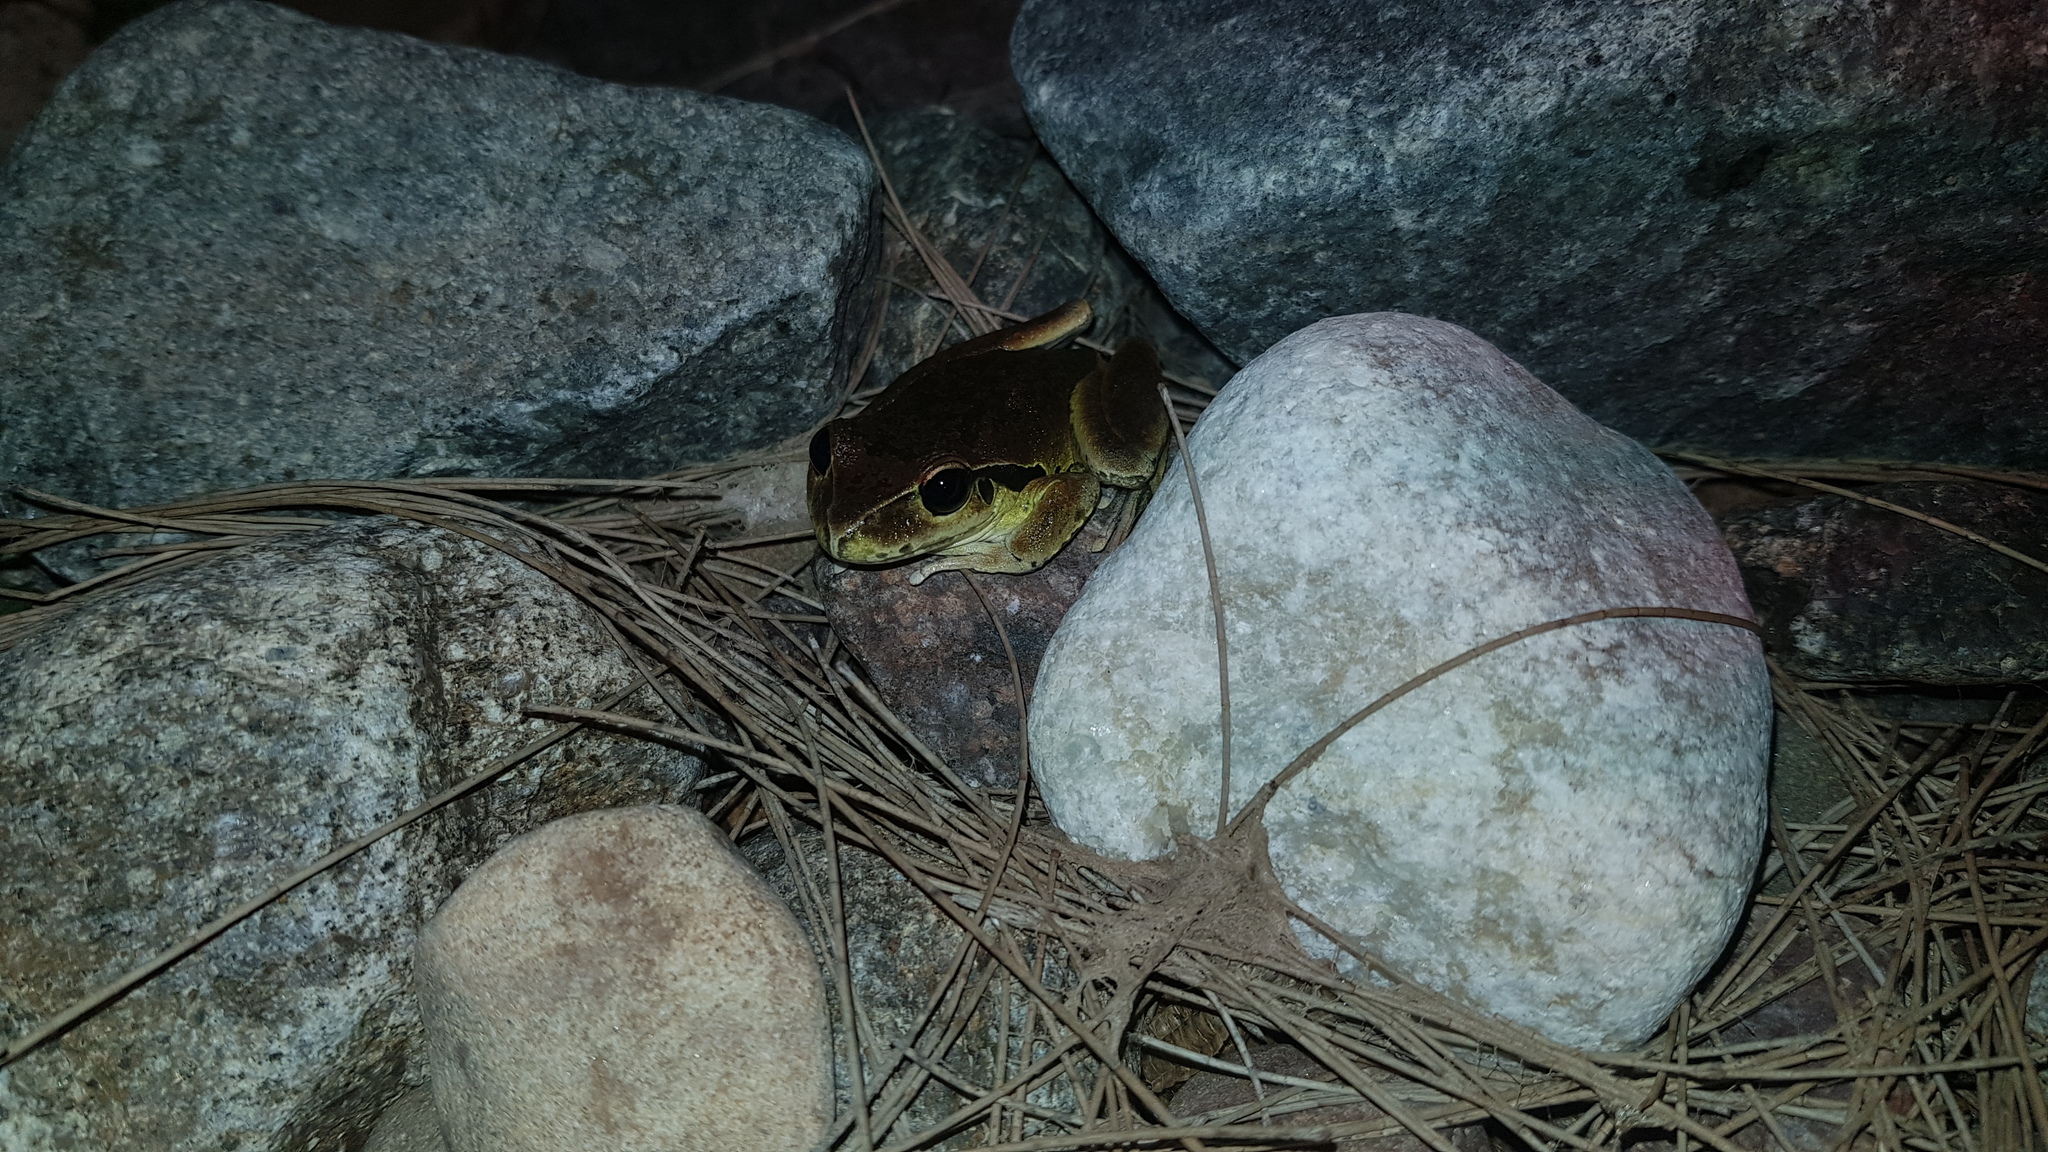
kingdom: Animalia
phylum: Chordata
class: Amphibia
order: Anura
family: Pelodryadidae
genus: Ranoidea
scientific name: Ranoidea lesueurii
